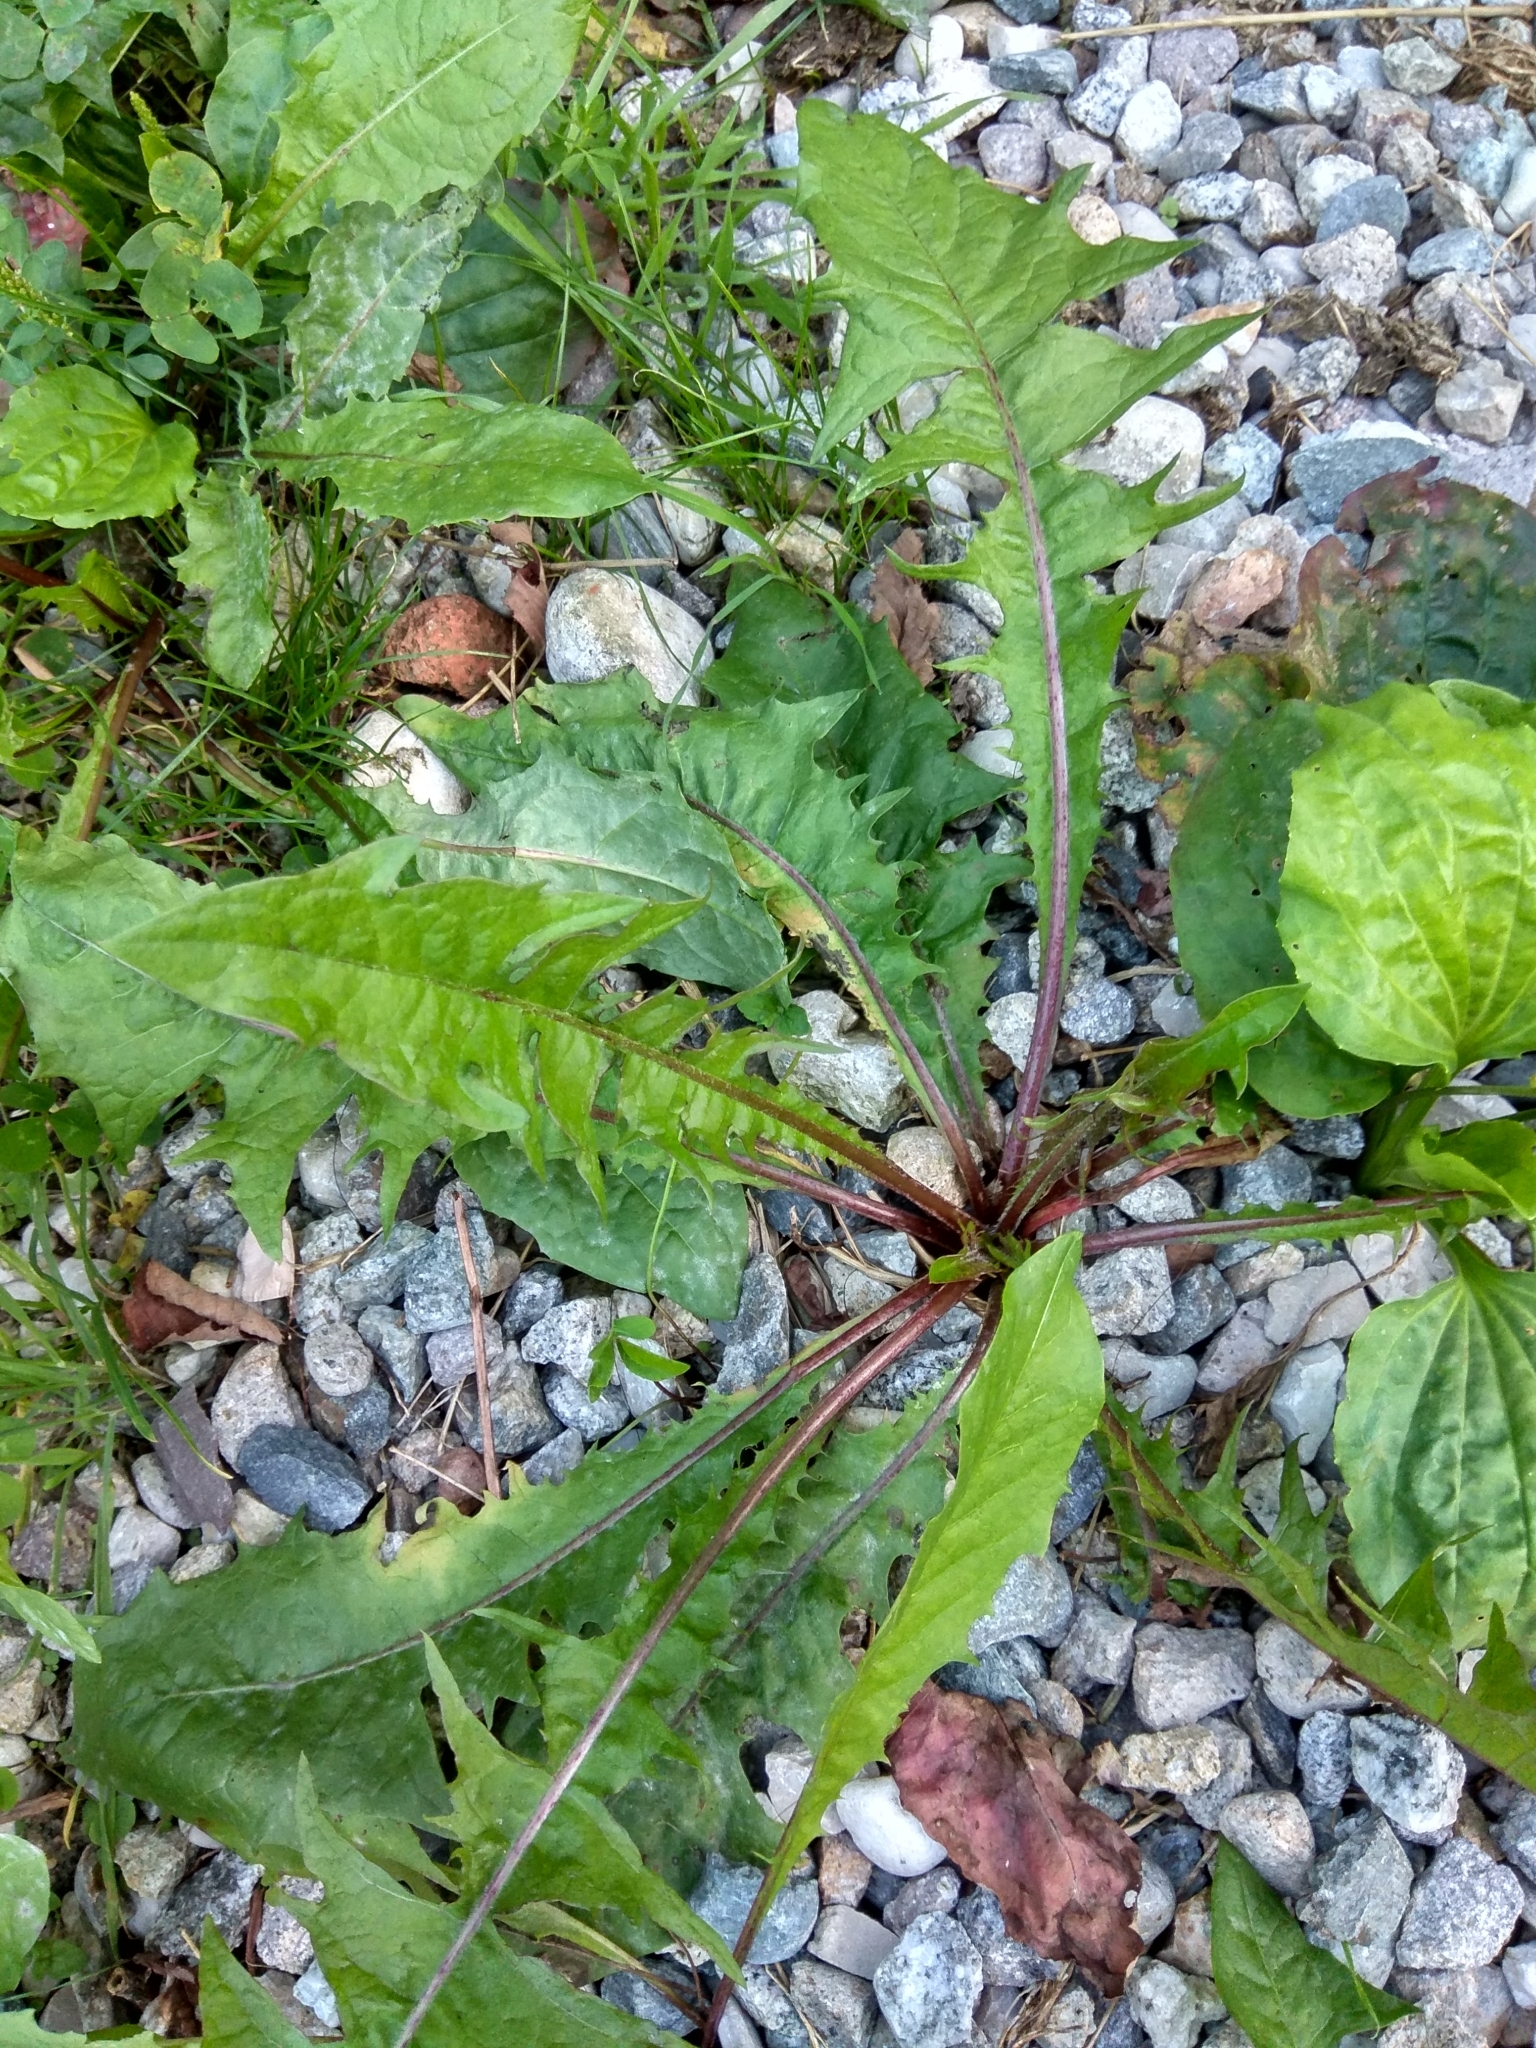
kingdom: Plantae
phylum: Tracheophyta
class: Magnoliopsida
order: Asterales
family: Asteraceae
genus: Taraxacum
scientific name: Taraxacum officinale
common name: Common dandelion
